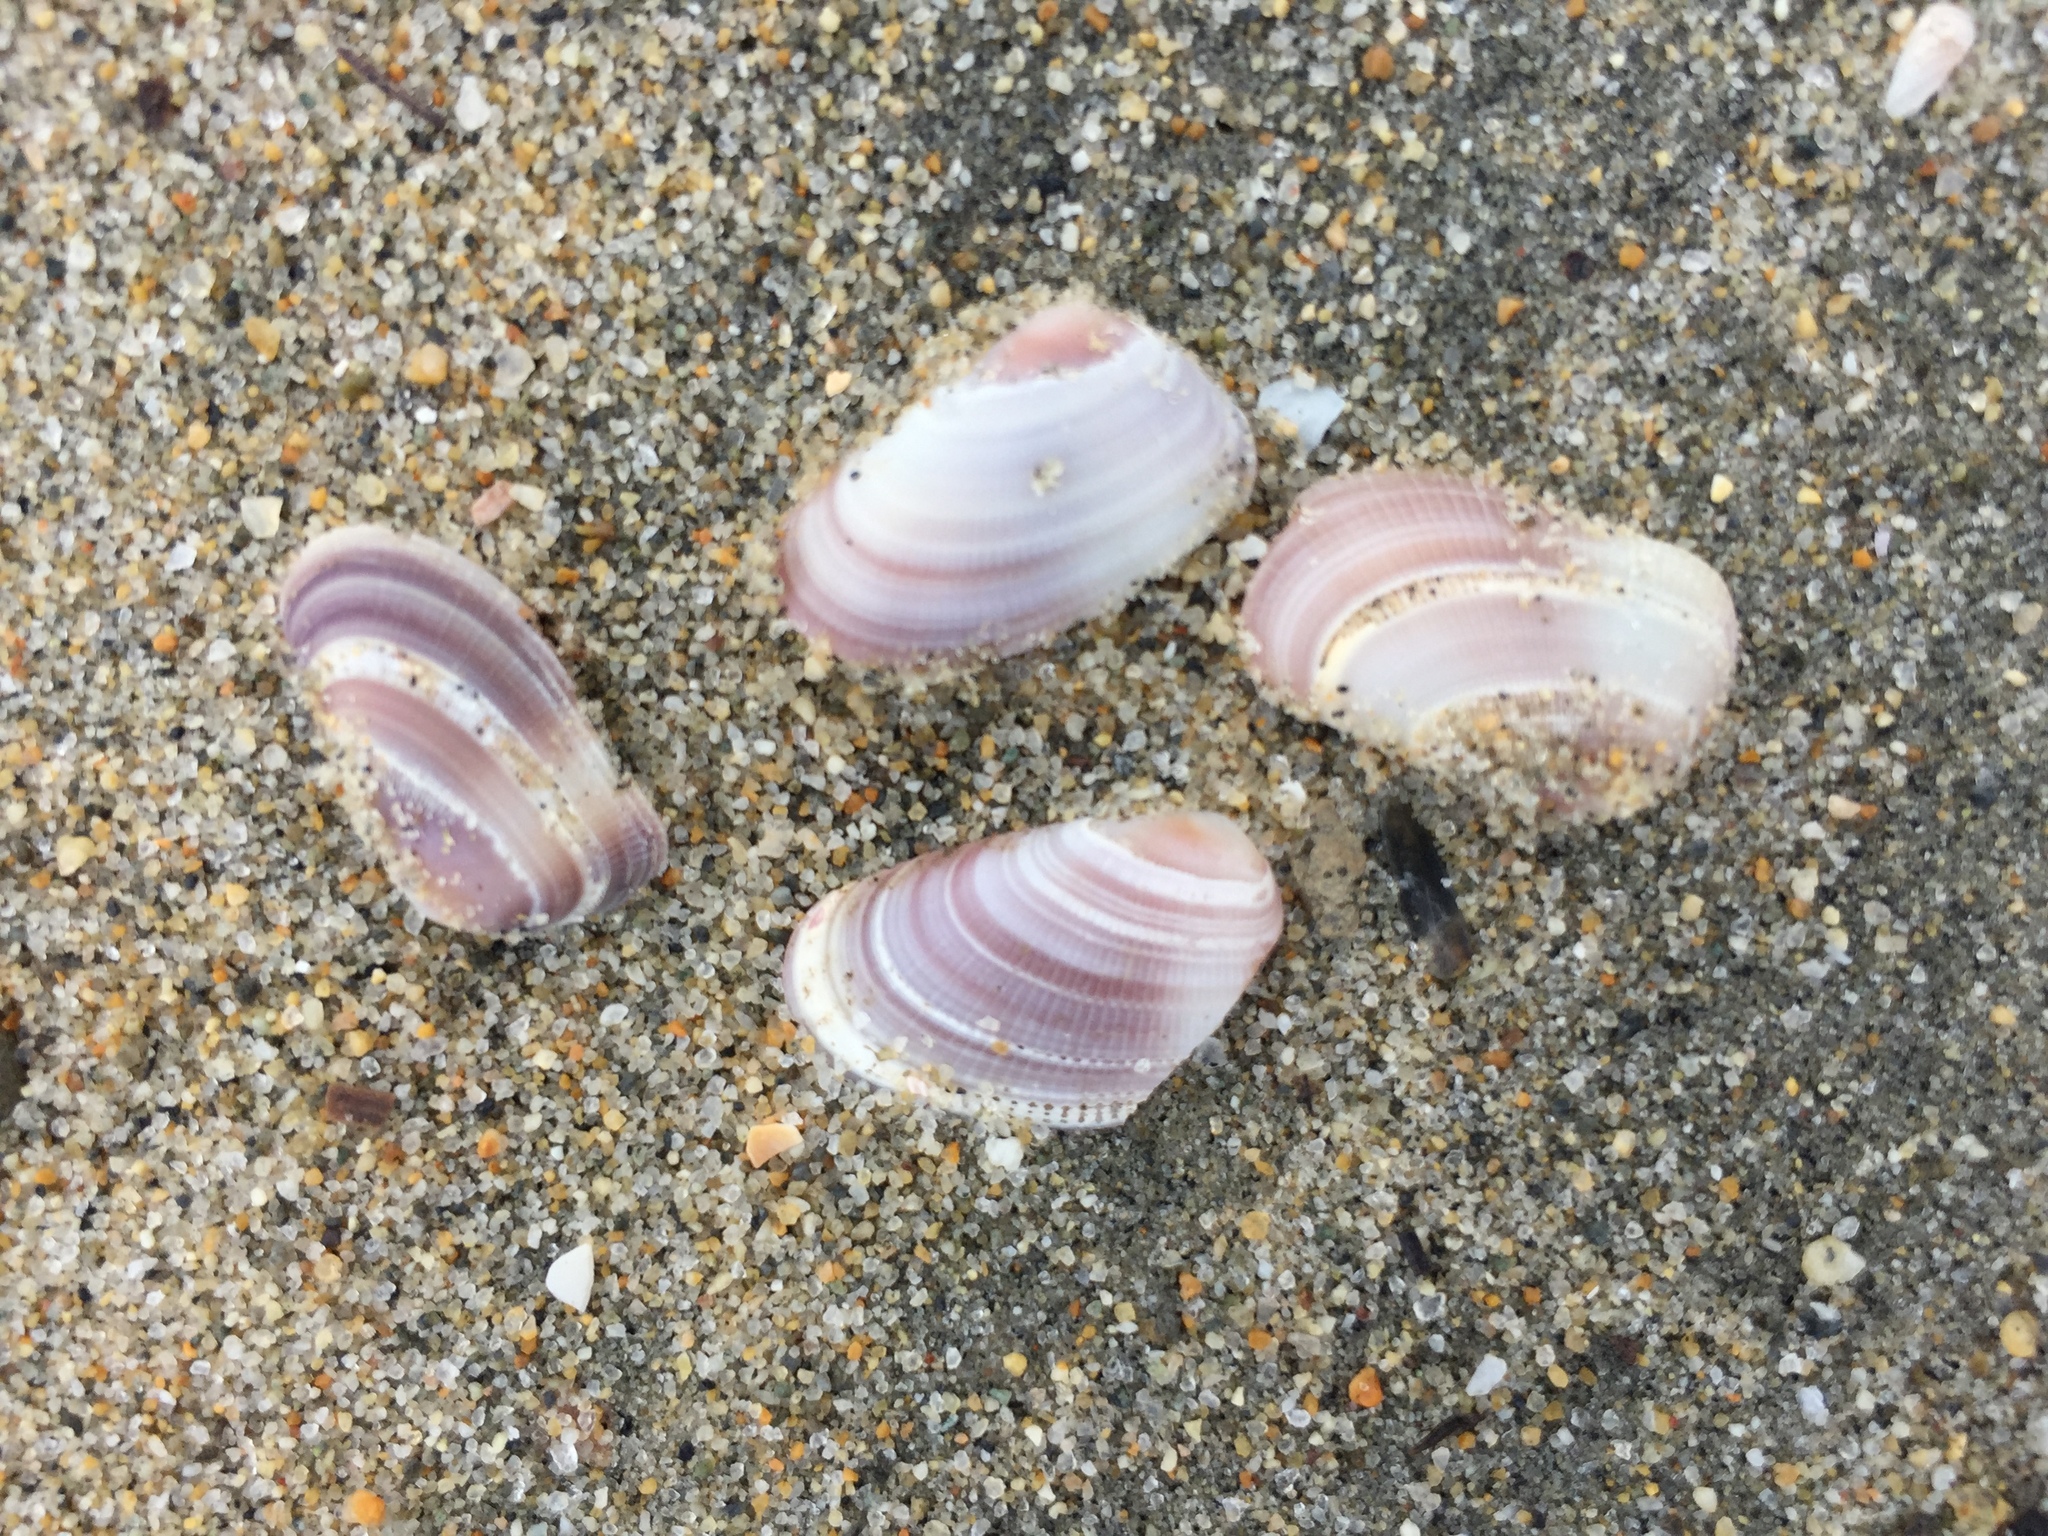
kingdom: Animalia
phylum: Mollusca
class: Bivalvia
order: Cardiida
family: Donacidae
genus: Donax
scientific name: Donax gouldii
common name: Gould beanclam
